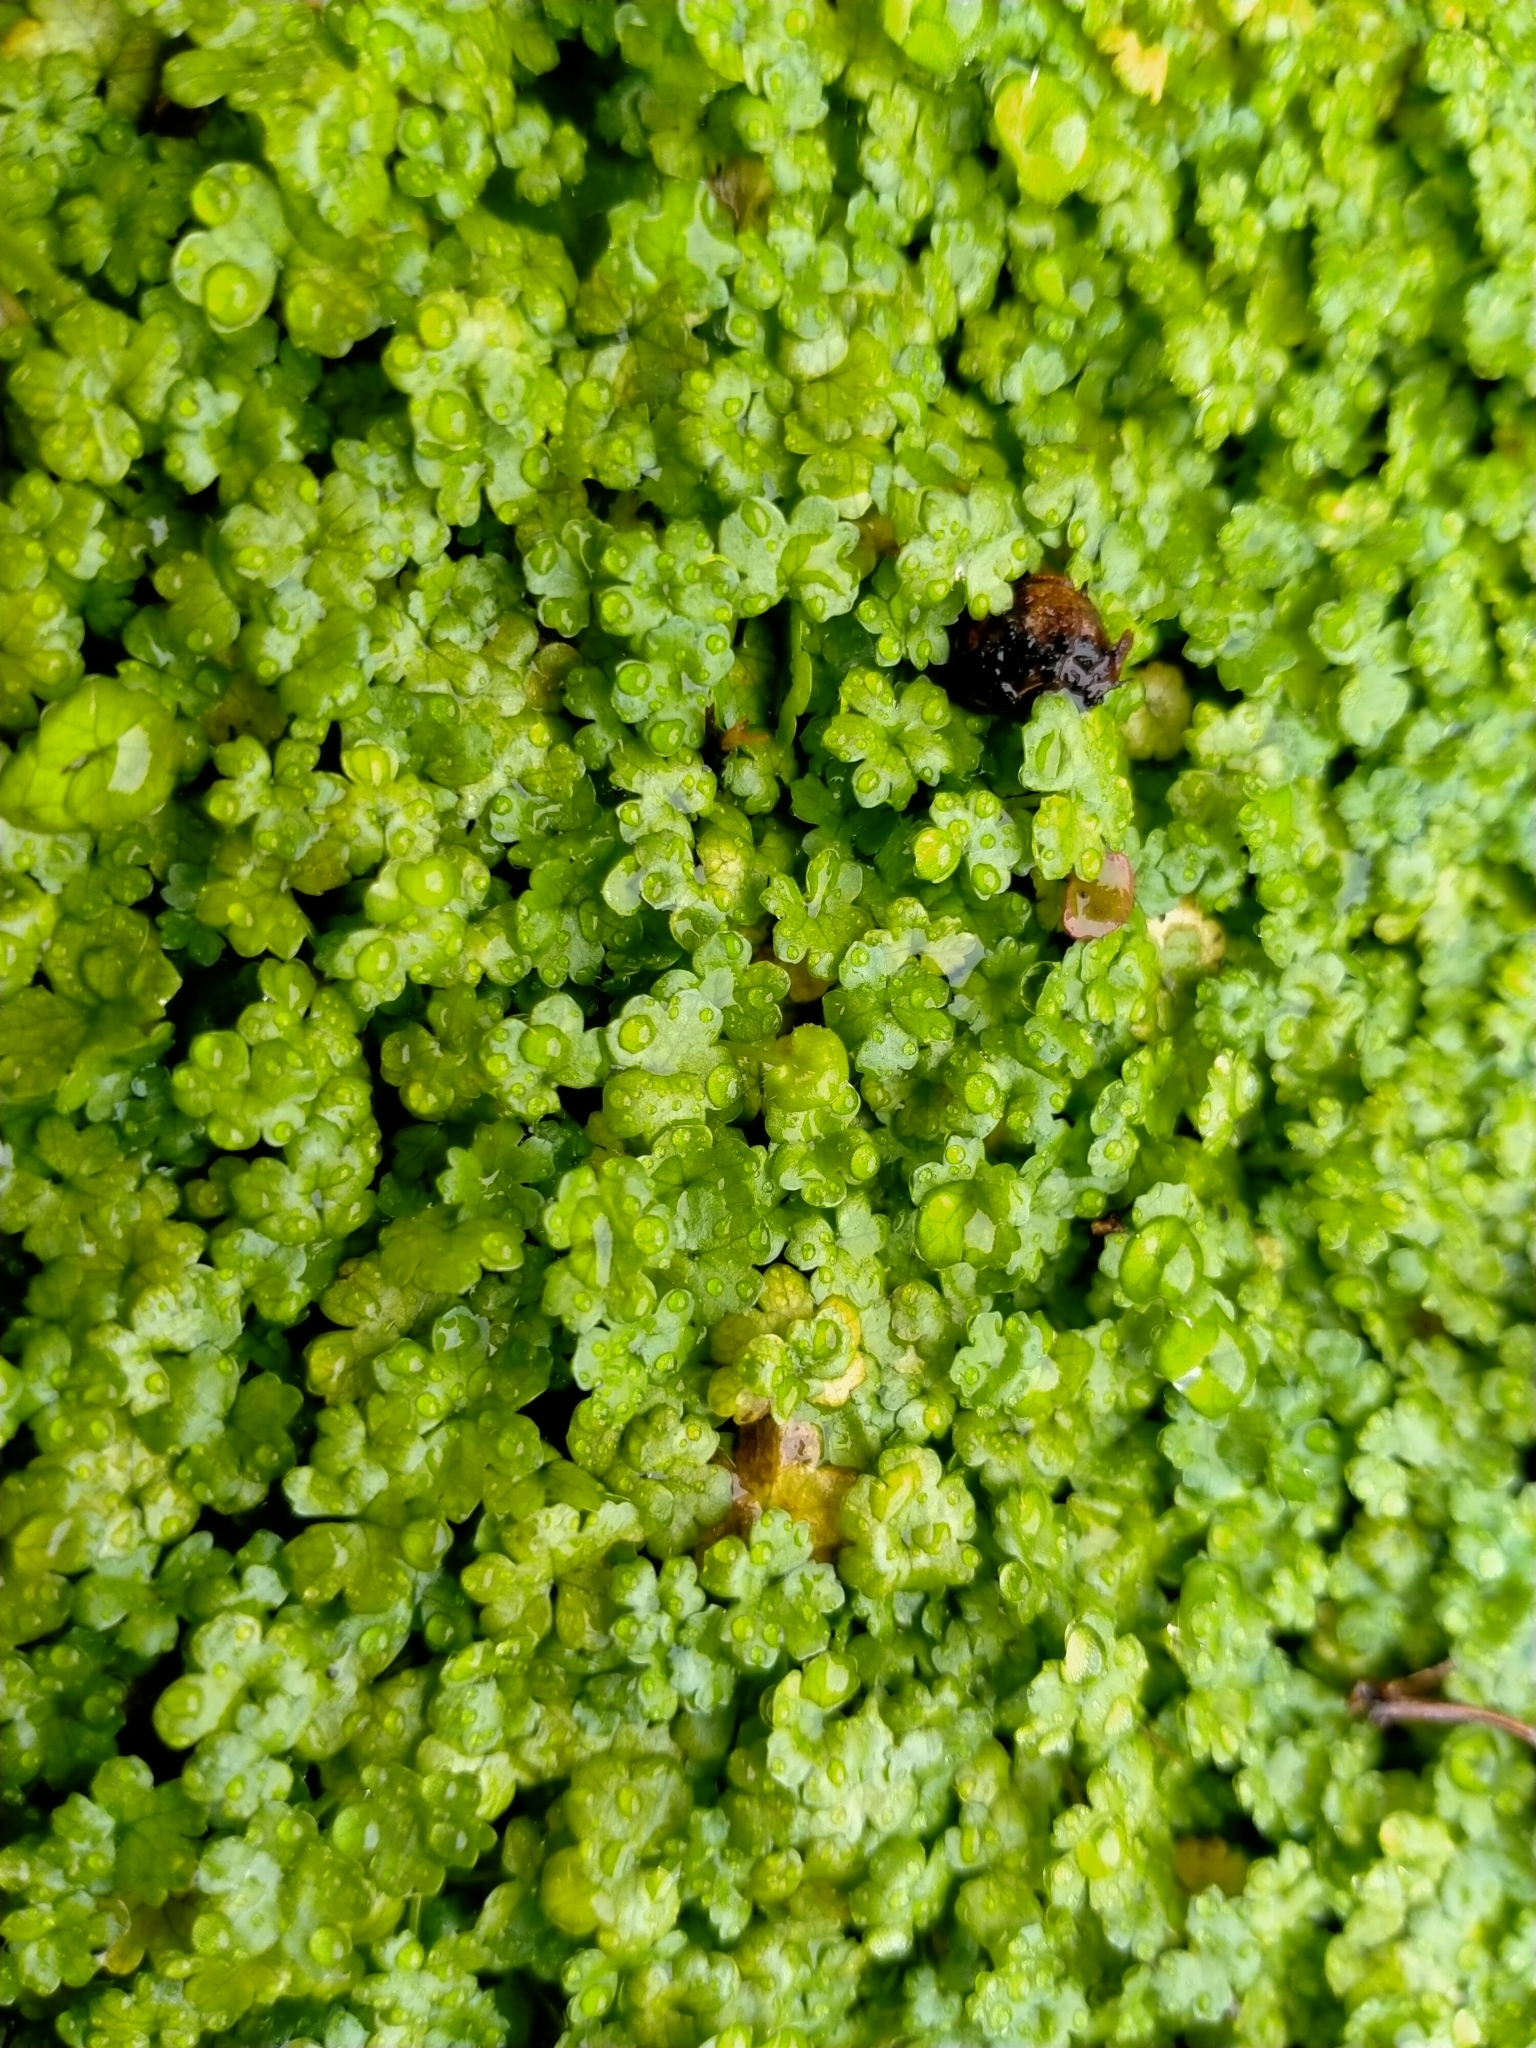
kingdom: Plantae
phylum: Tracheophyta
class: Magnoliopsida
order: Apiales
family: Araliaceae
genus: Hydrocotyle
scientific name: Hydrocotyle heteromeria
